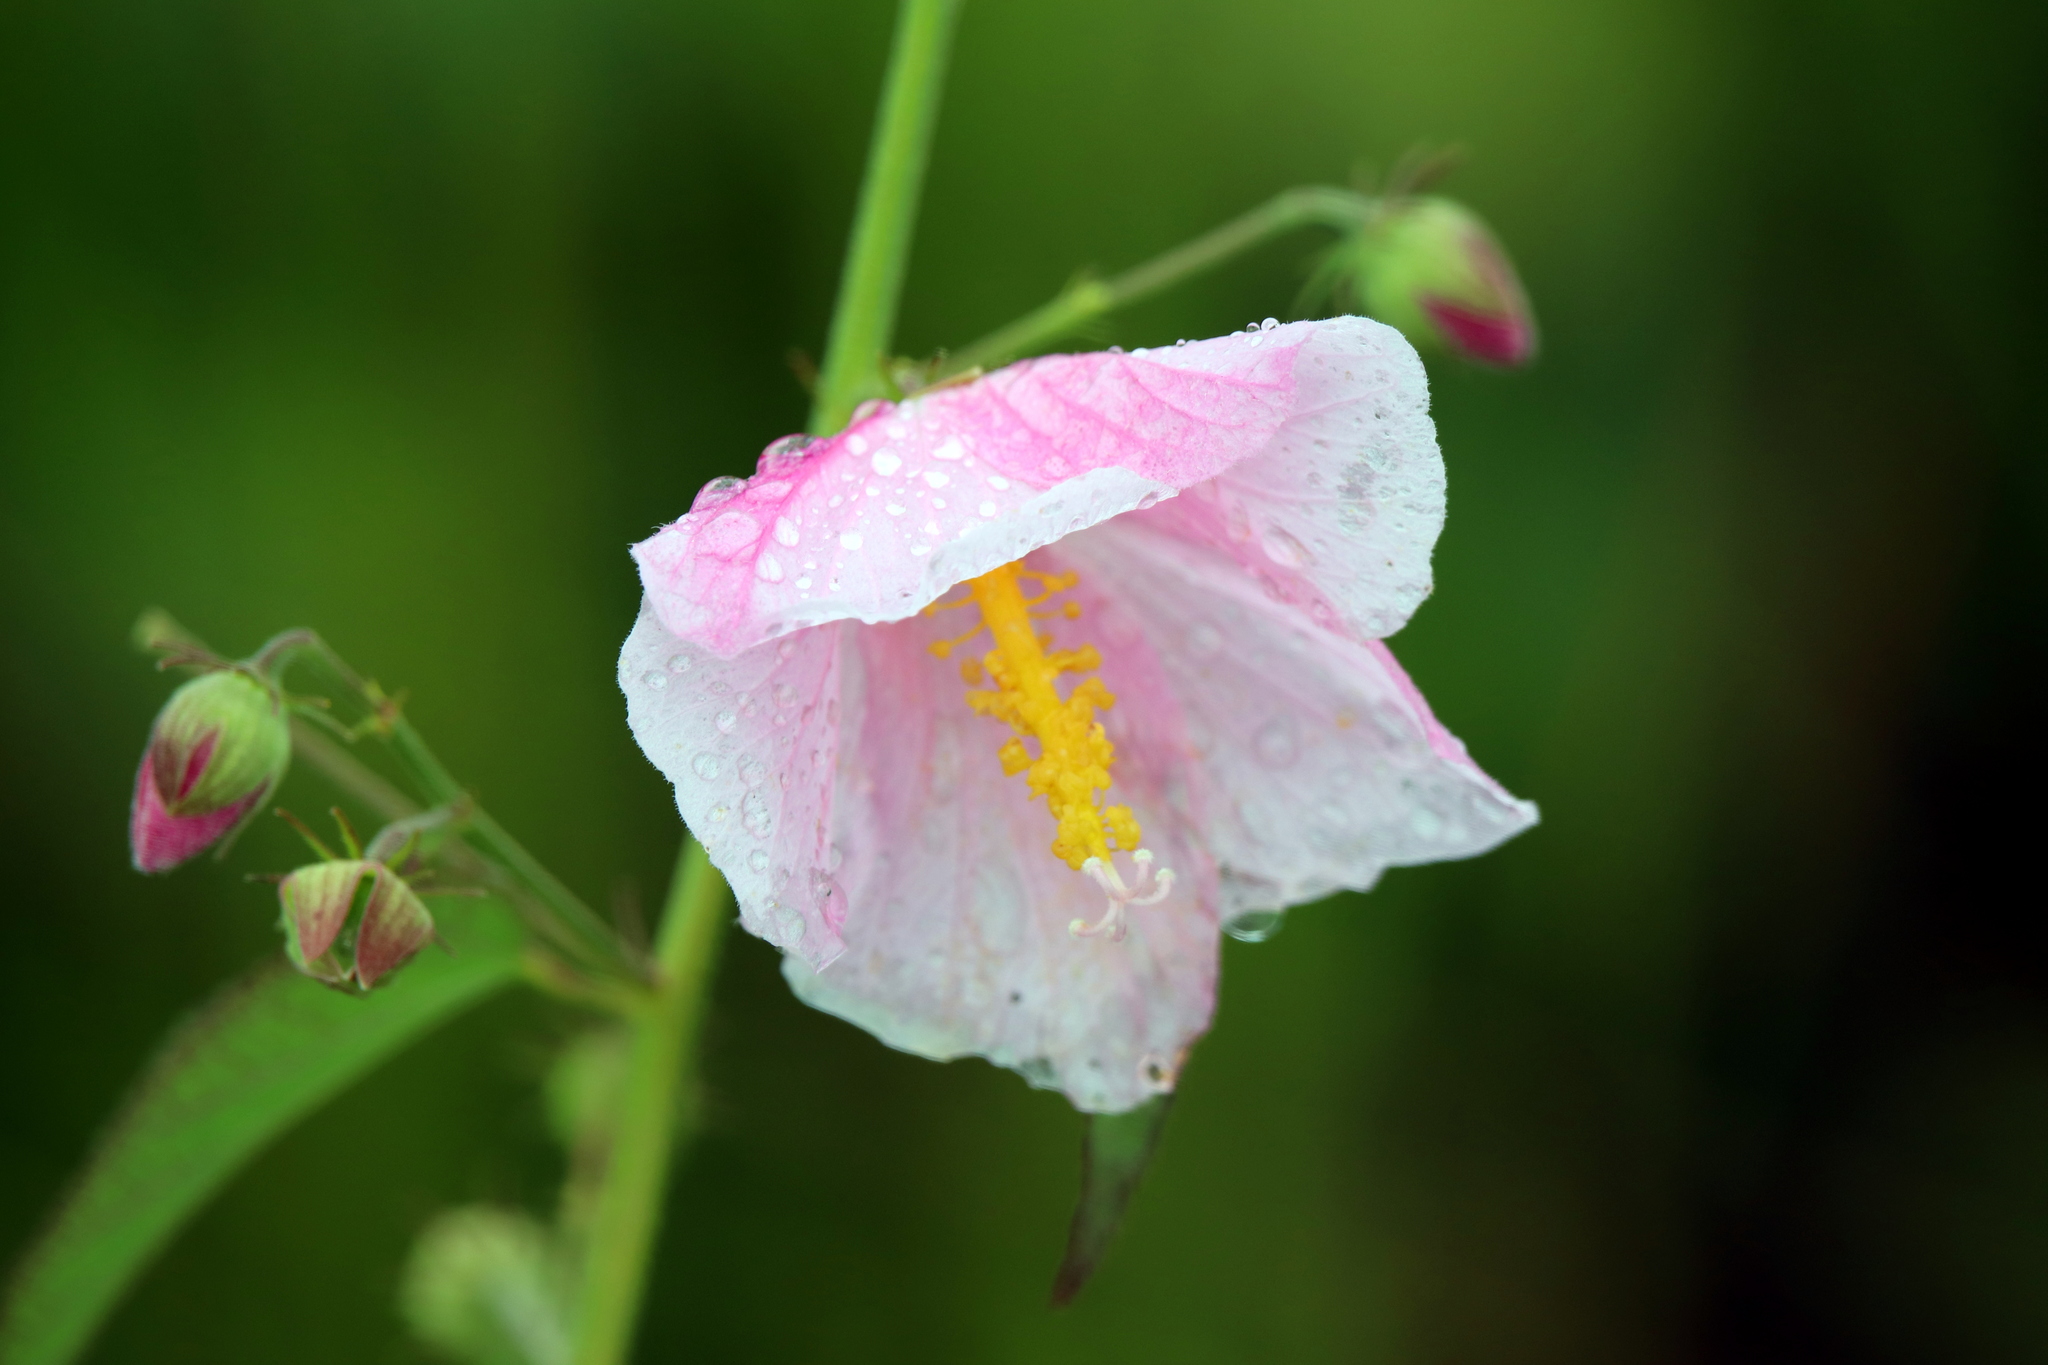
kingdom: Plantae
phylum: Tracheophyta
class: Magnoliopsida
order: Malvales
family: Malvaceae
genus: Kosteletzkya
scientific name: Kosteletzkya pentacarpos
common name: Virginia saltmarsh mallow
